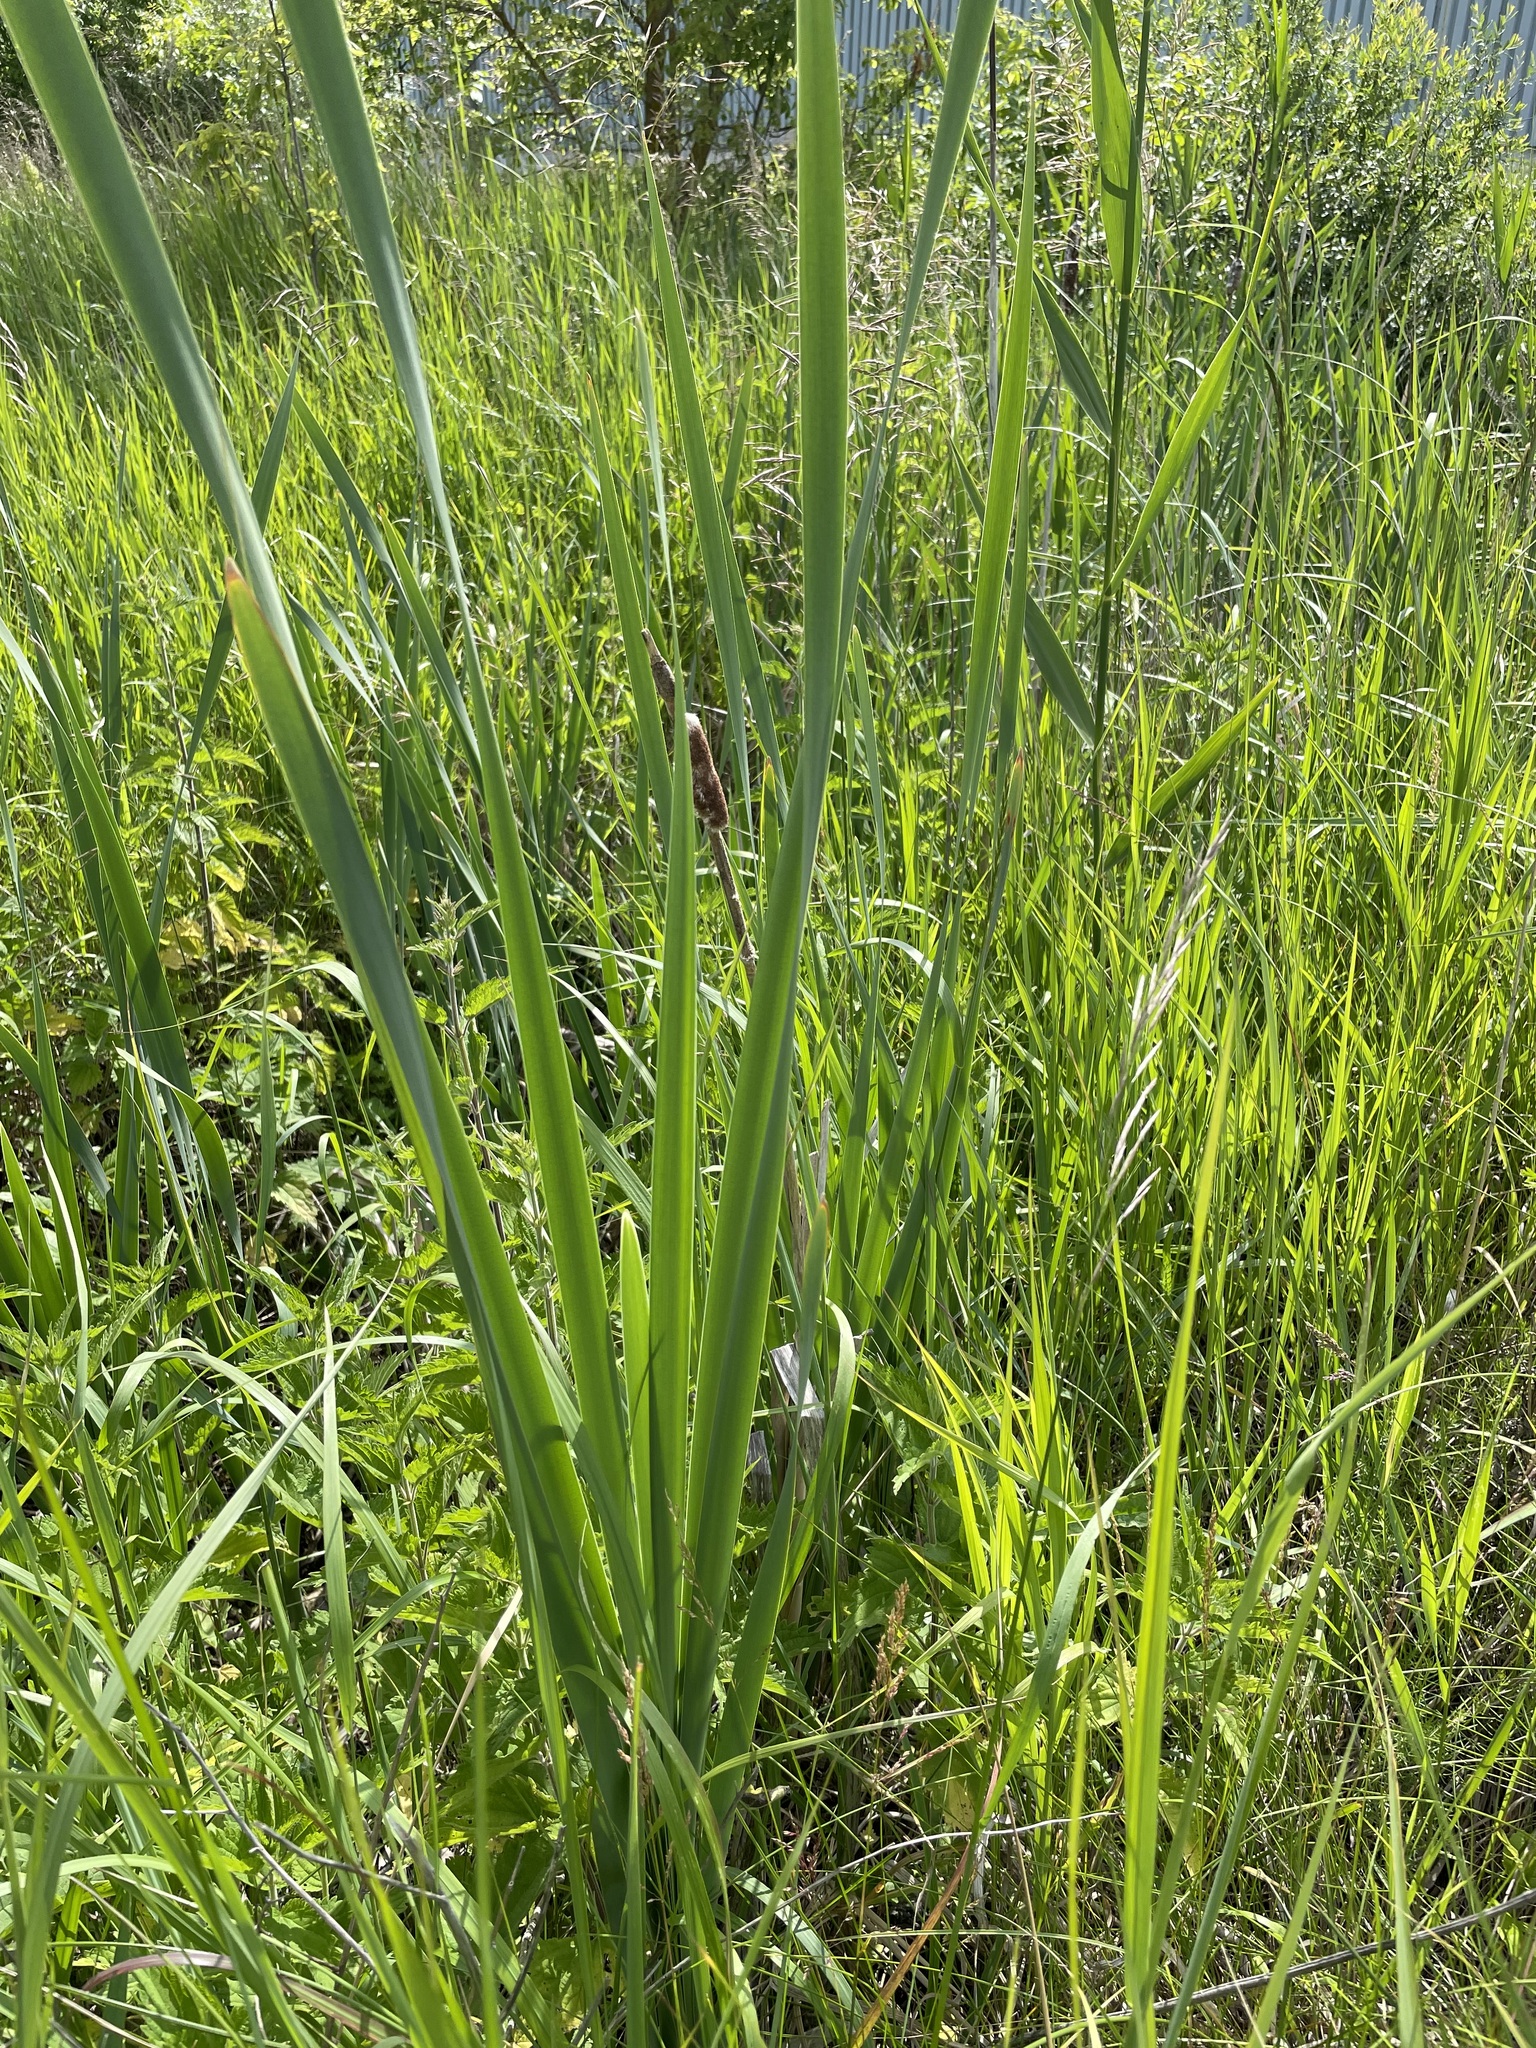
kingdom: Plantae
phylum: Tracheophyta
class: Liliopsida
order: Poales
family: Typhaceae
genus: Typha
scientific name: Typha latifolia
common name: Broadleaf cattail
